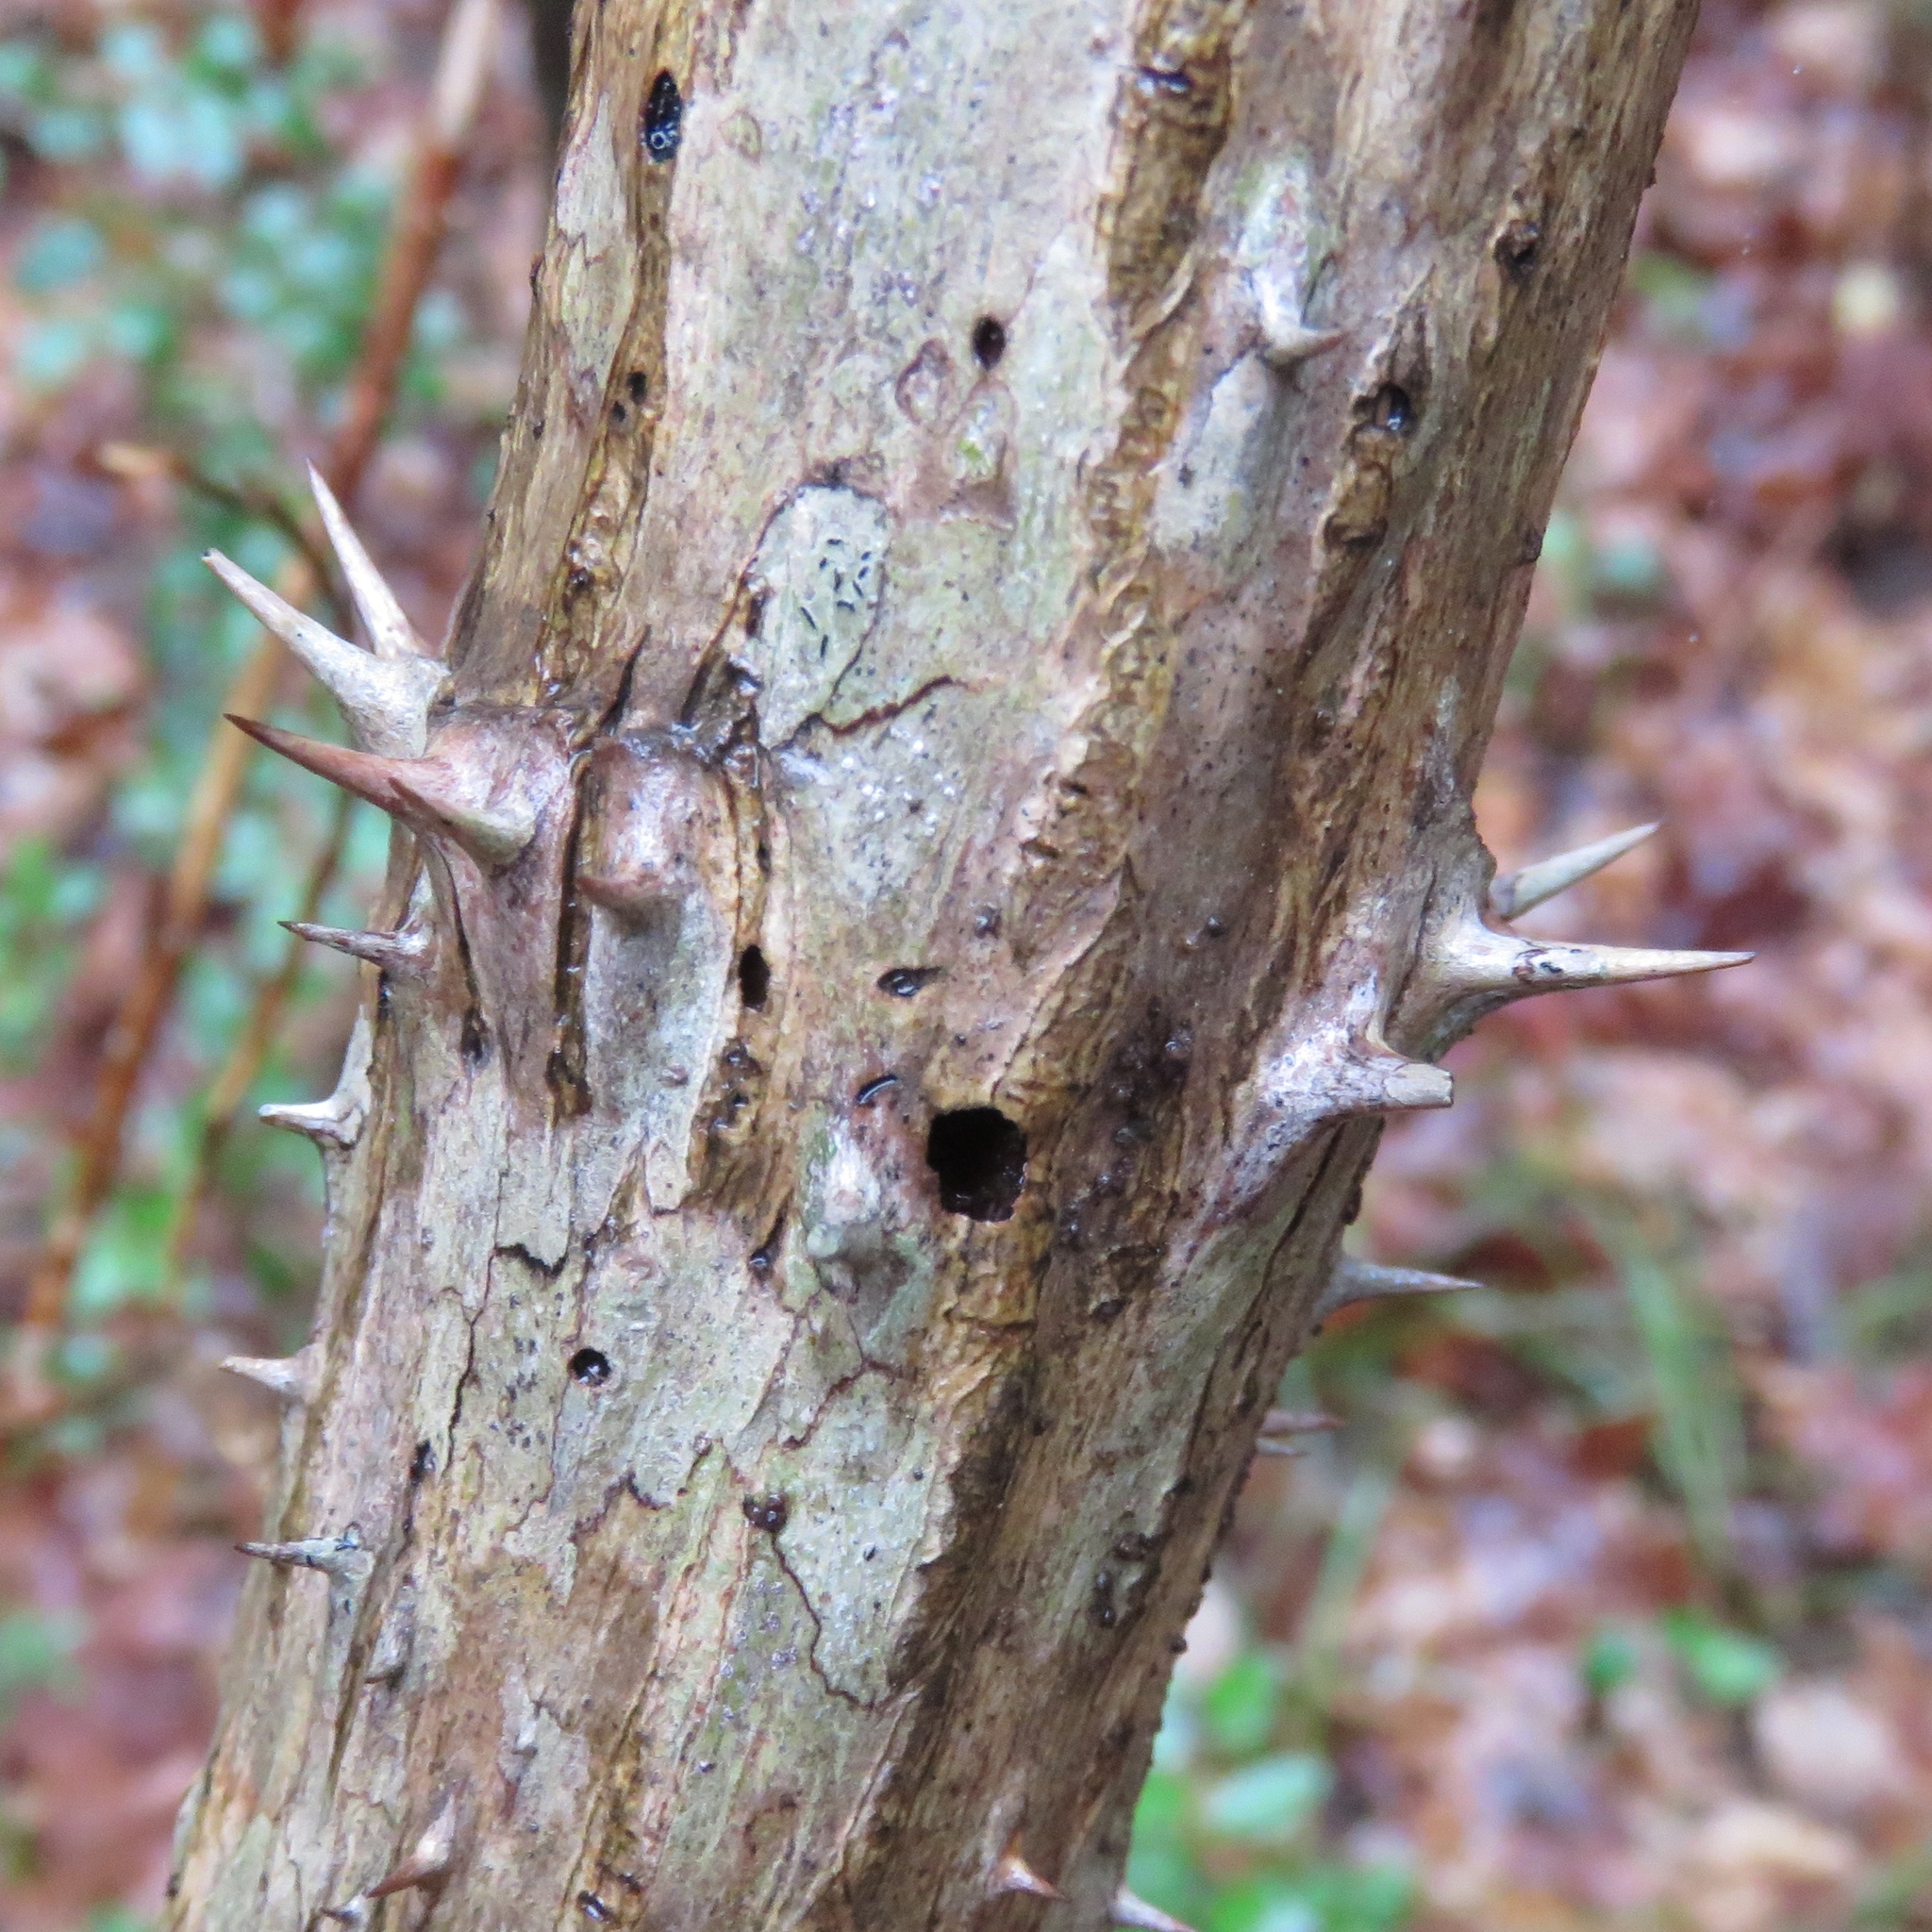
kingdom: Plantae
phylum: Tracheophyta
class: Magnoliopsida
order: Apiales
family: Araliaceae
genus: Aralia
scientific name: Aralia spinosa
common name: Hercules'-club
